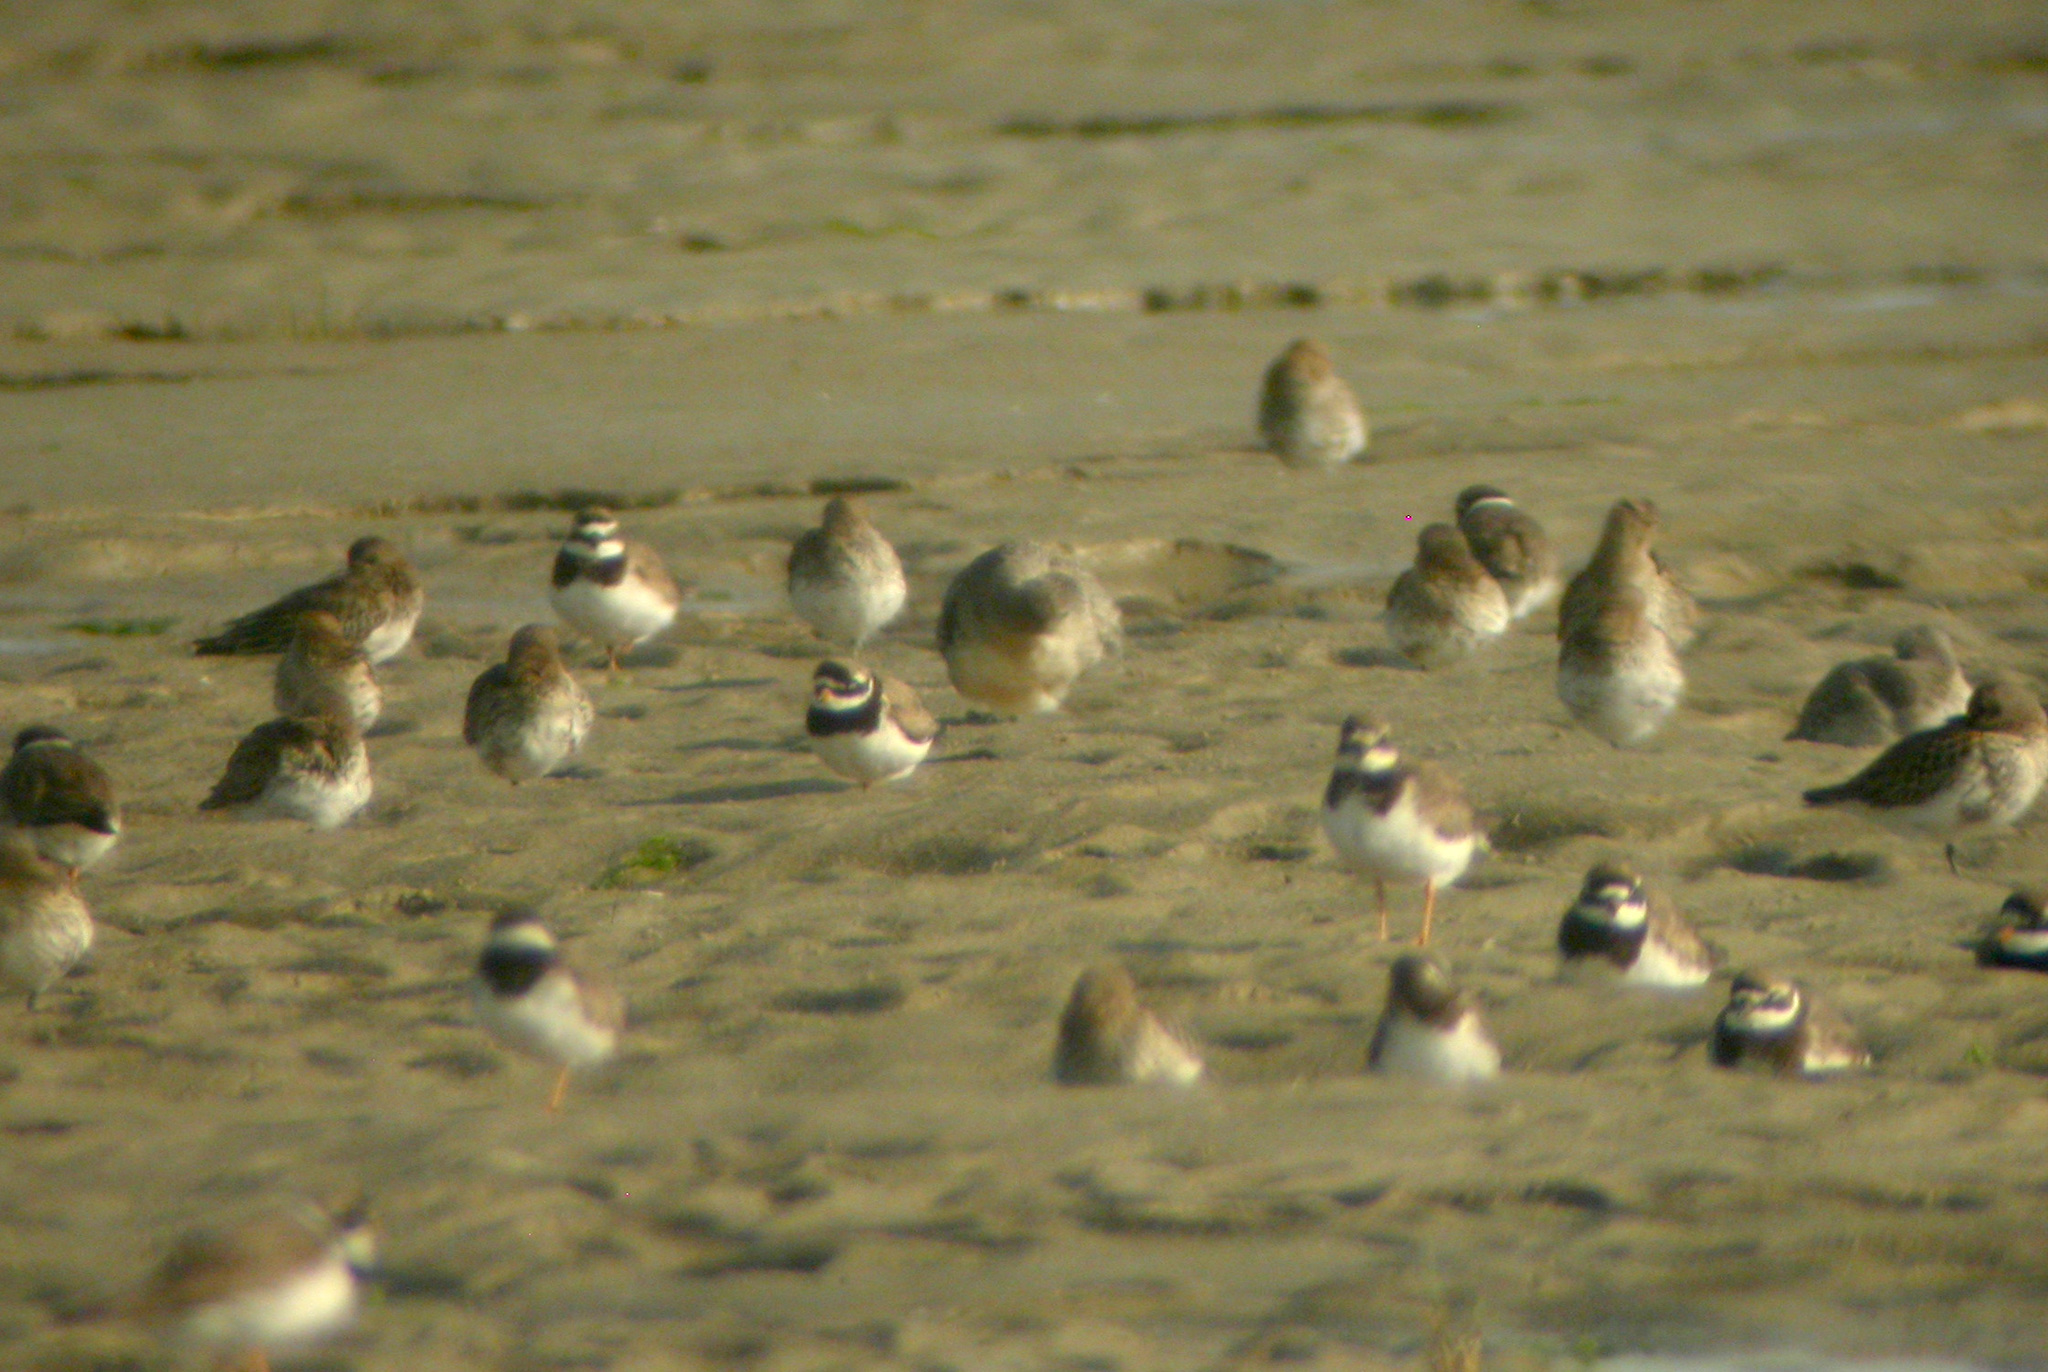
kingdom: Animalia
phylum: Chordata
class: Aves
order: Charadriiformes
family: Charadriidae
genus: Charadrius
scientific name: Charadrius hiaticula
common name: Common ringed plover
